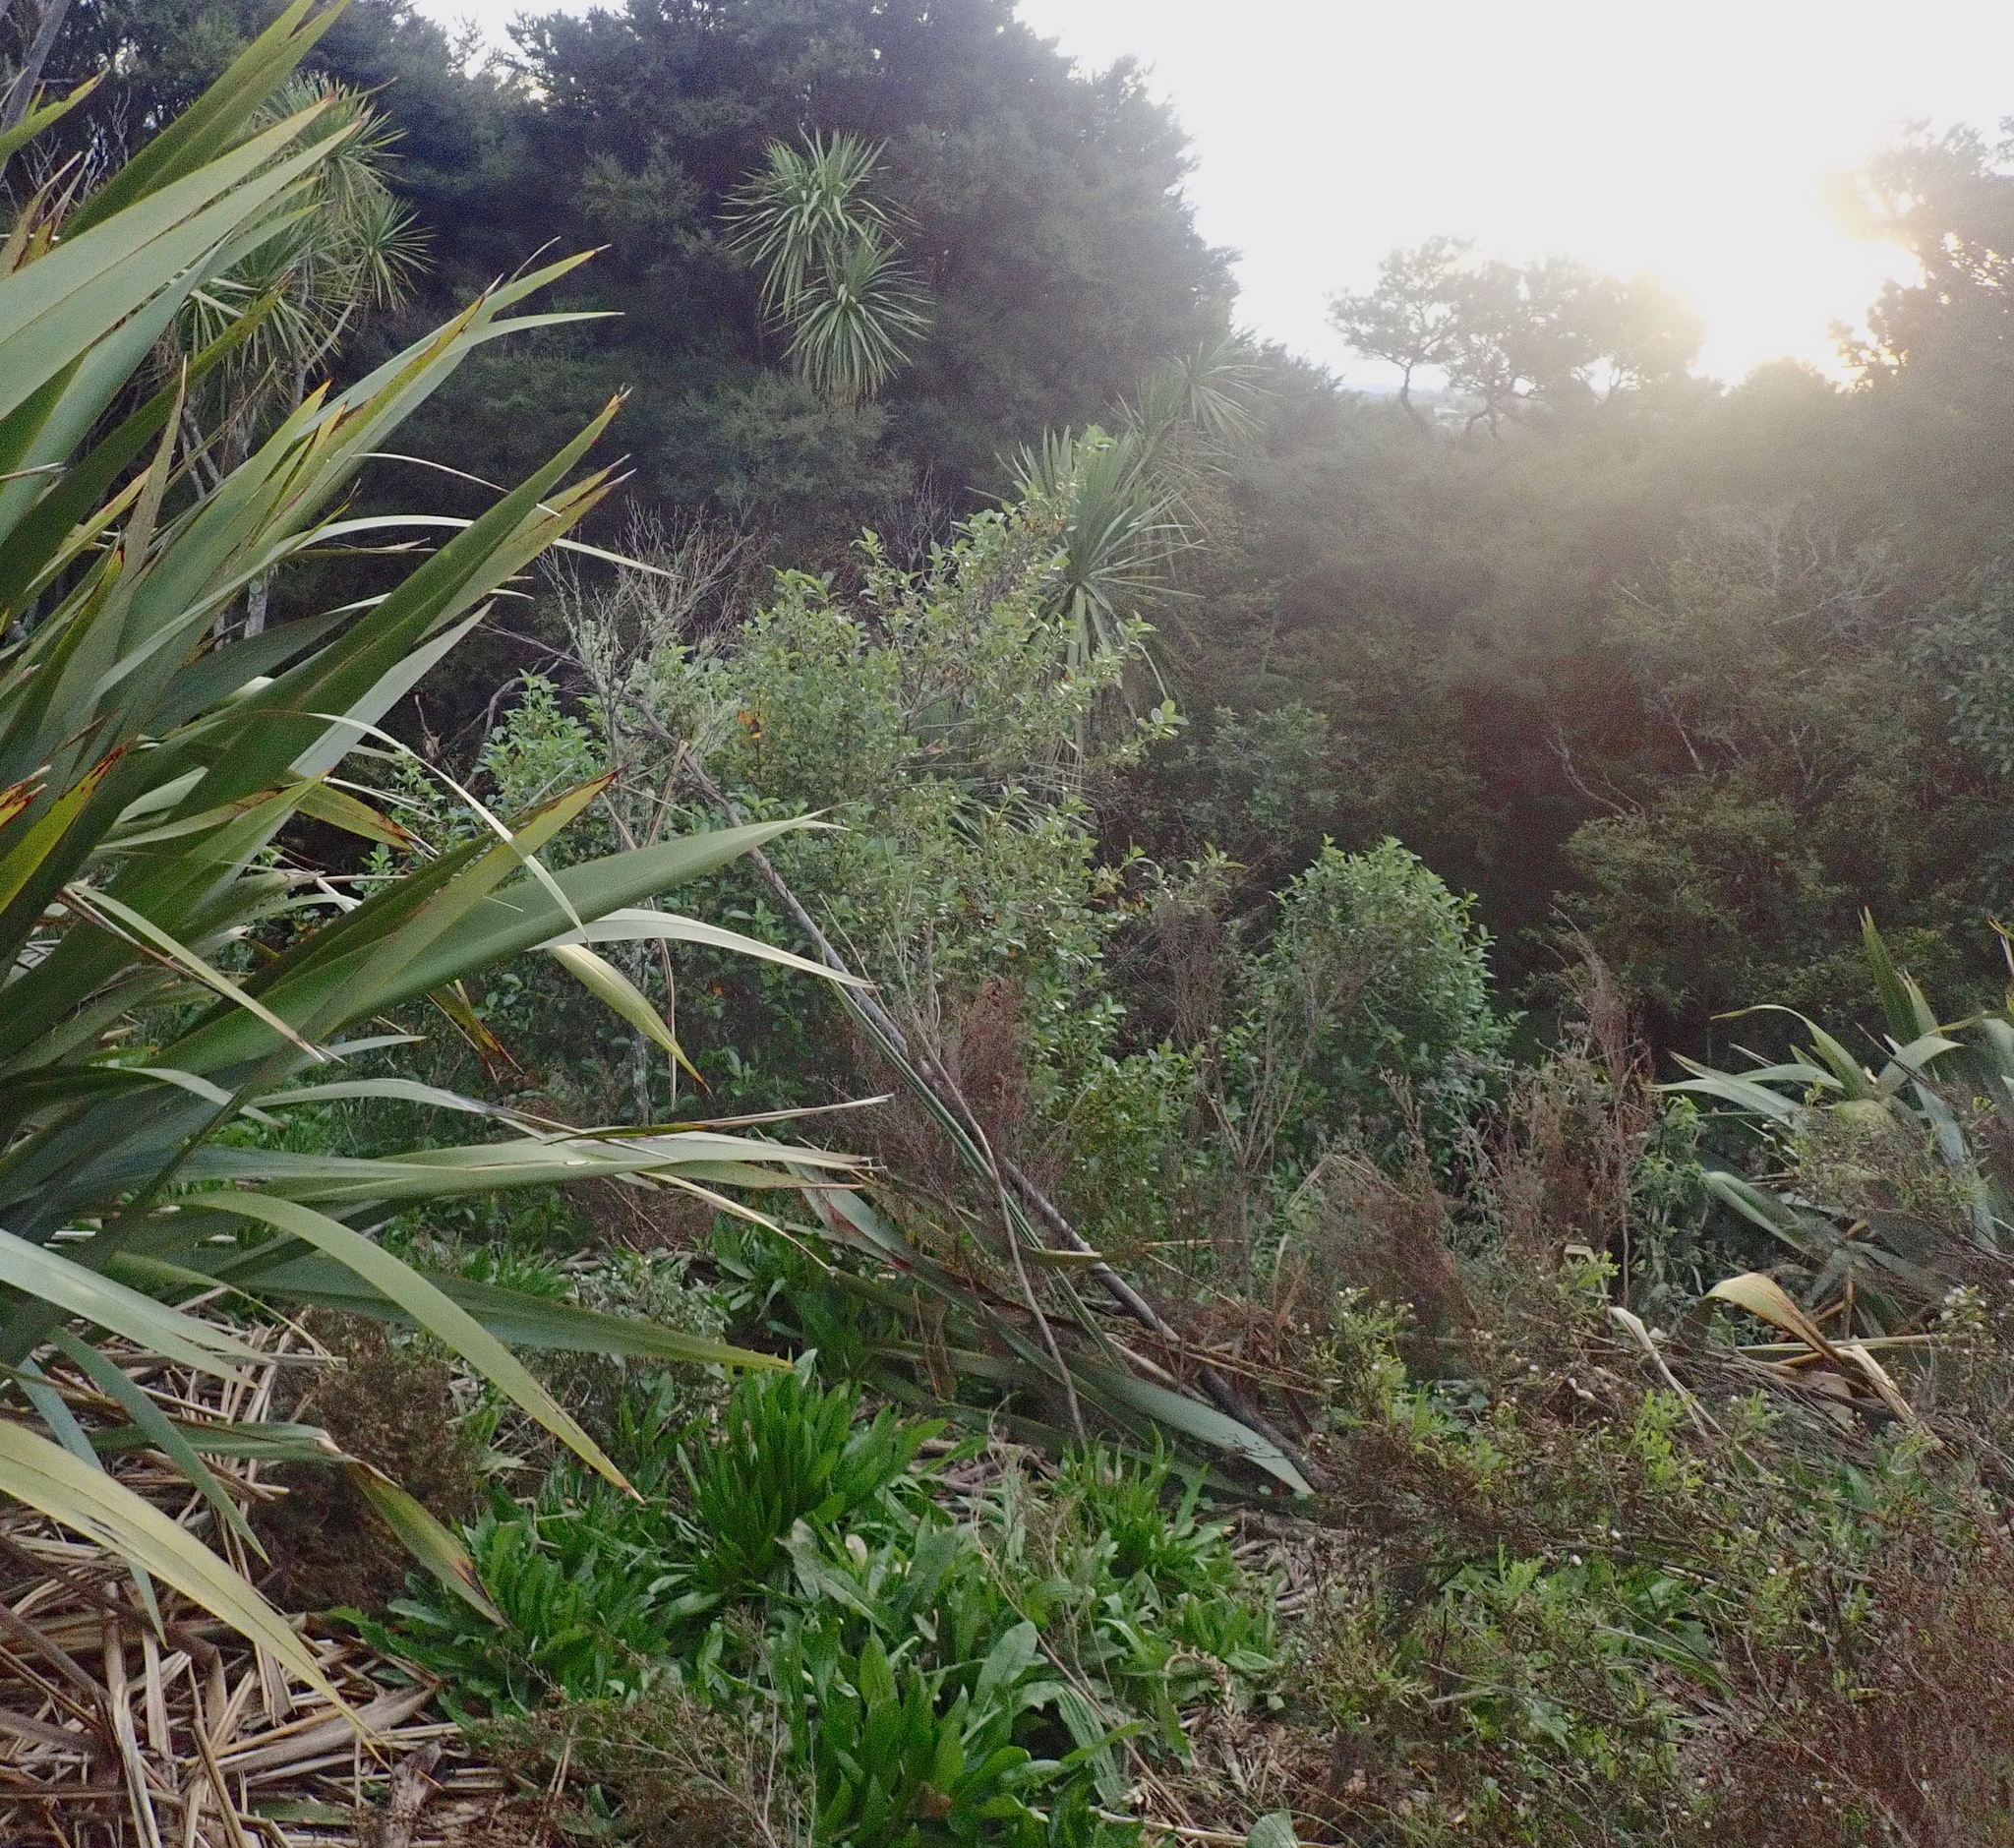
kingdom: Plantae
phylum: Tracheophyta
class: Magnoliopsida
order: Gentianales
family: Rubiaceae
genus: Coprosma
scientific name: Coprosma robusta
